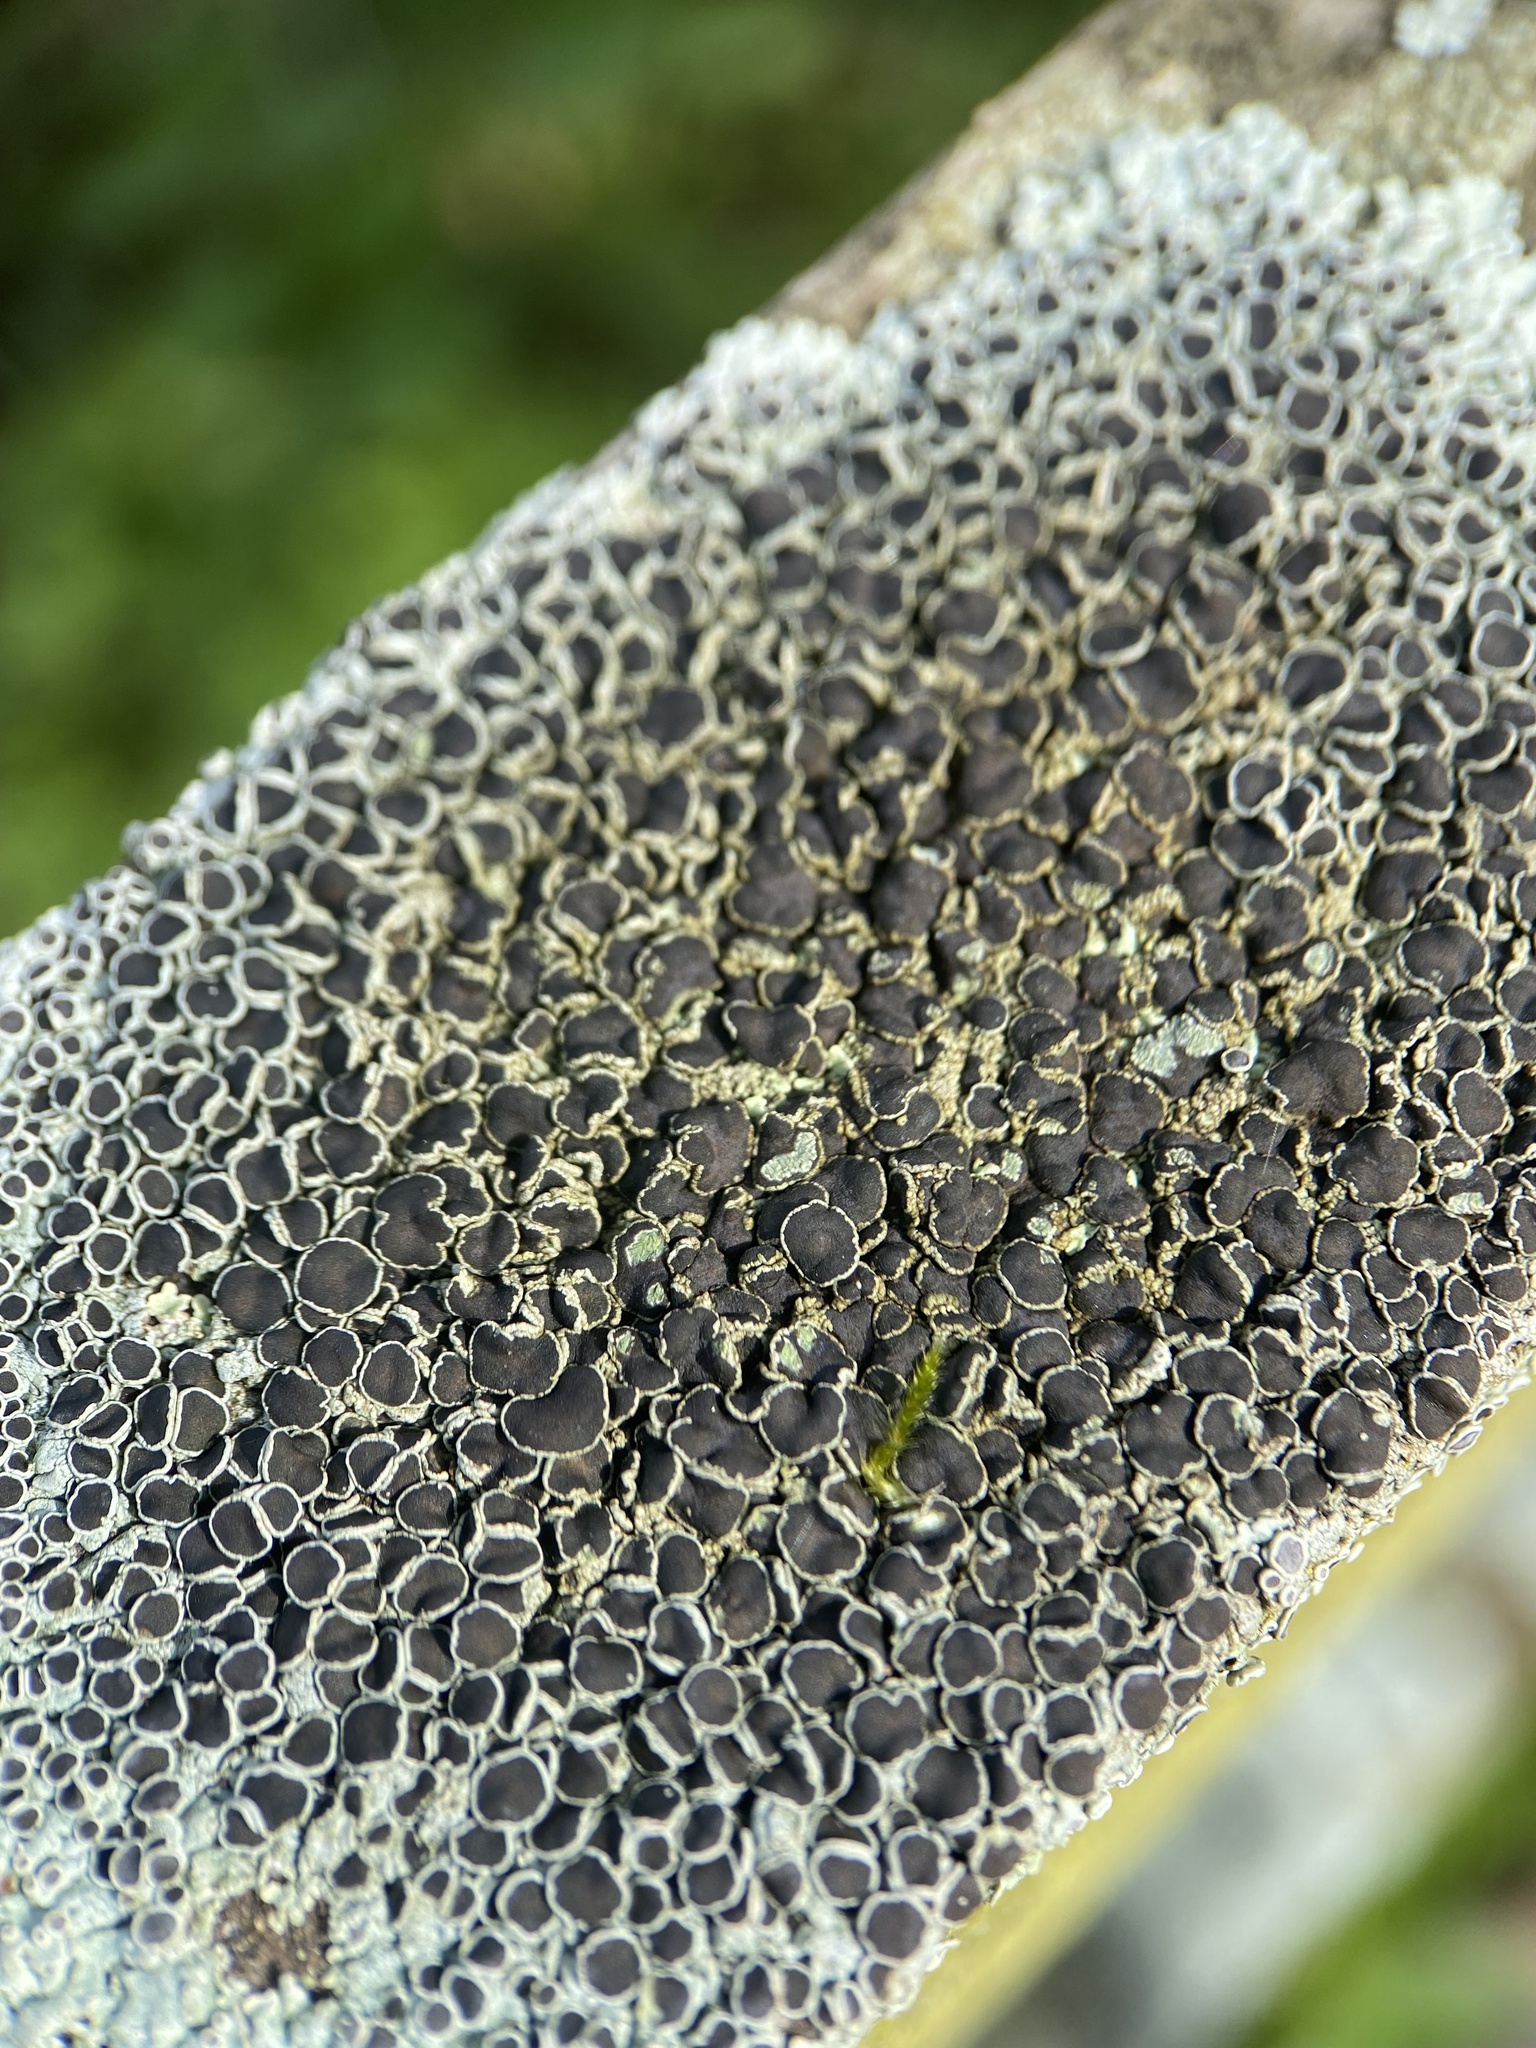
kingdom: Fungi
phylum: Ascomycota
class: Lecanoromycetes
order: Caliciales
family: Physciaceae
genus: Physcia
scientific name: Physcia aipolia
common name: Hoary rosette lichen
